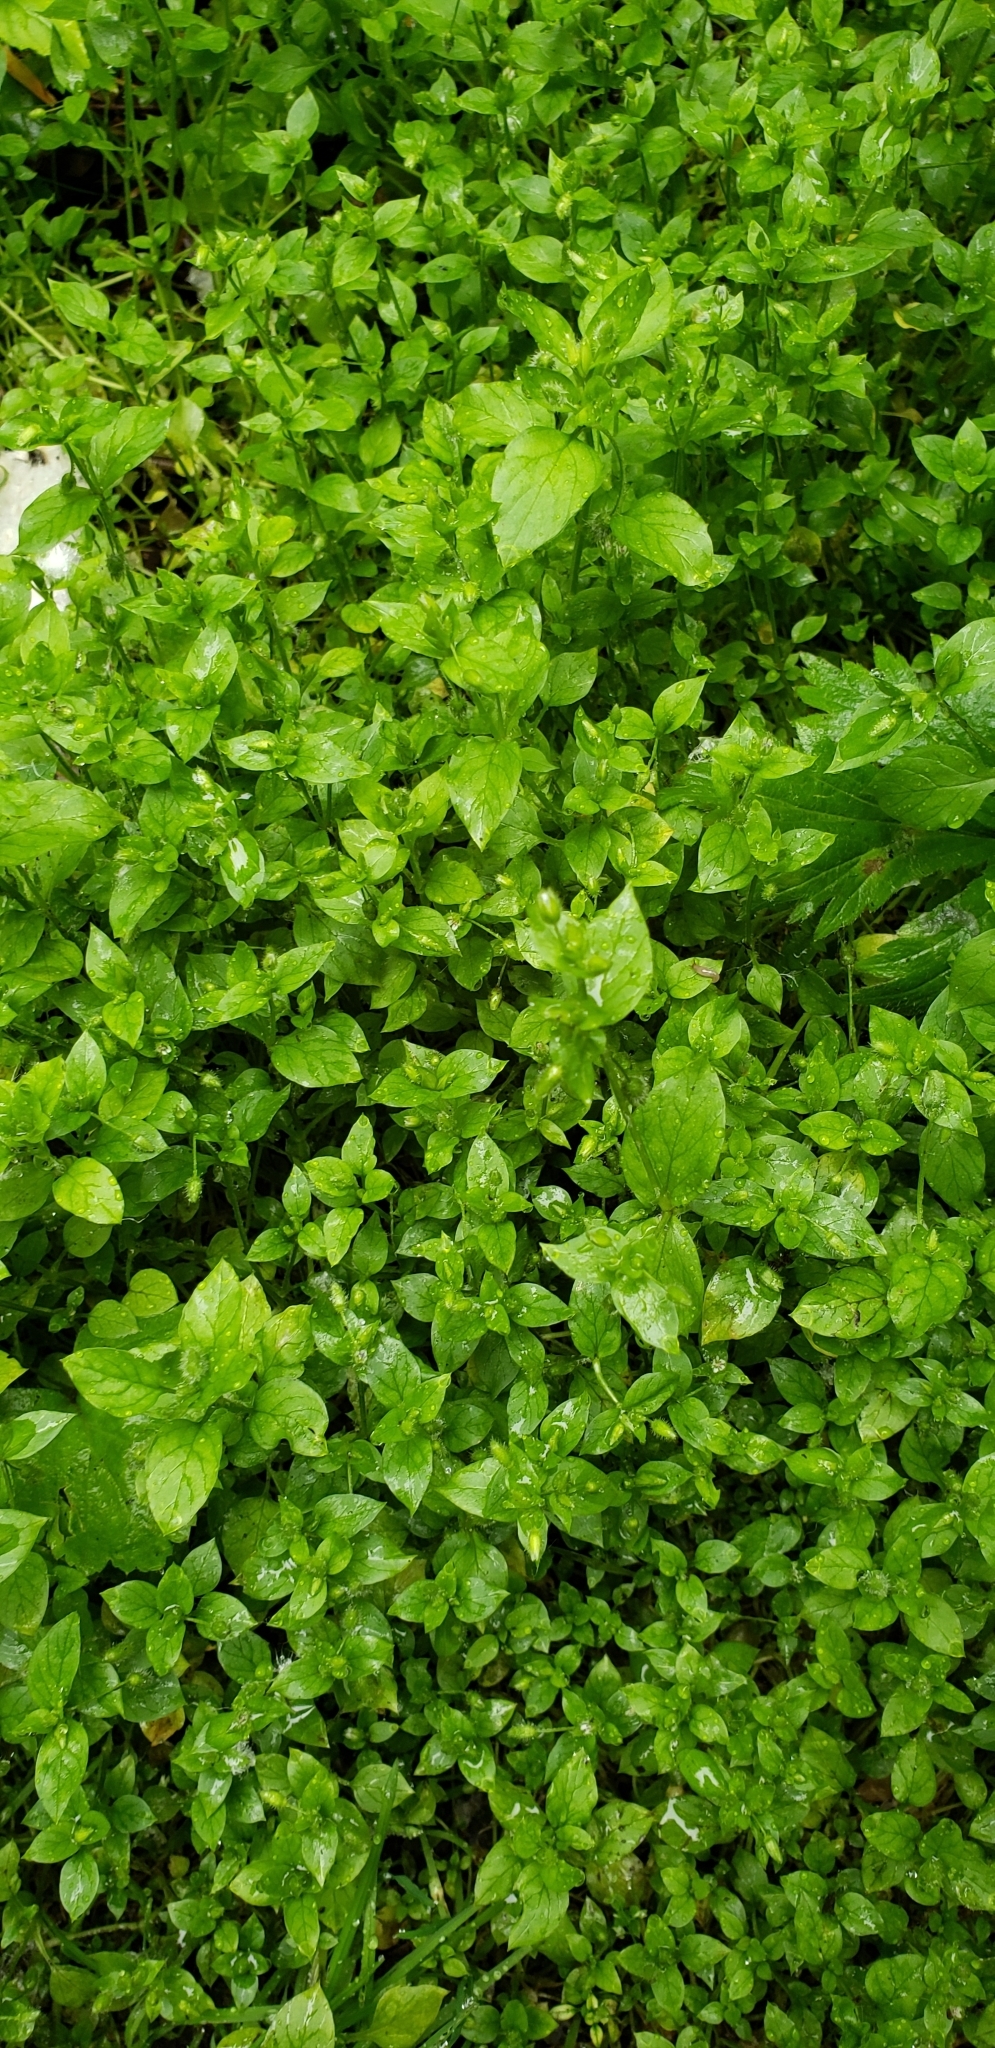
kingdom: Plantae
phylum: Tracheophyta
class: Magnoliopsida
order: Caryophyllales
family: Caryophyllaceae
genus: Stellaria
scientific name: Stellaria media
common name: Common chickweed
